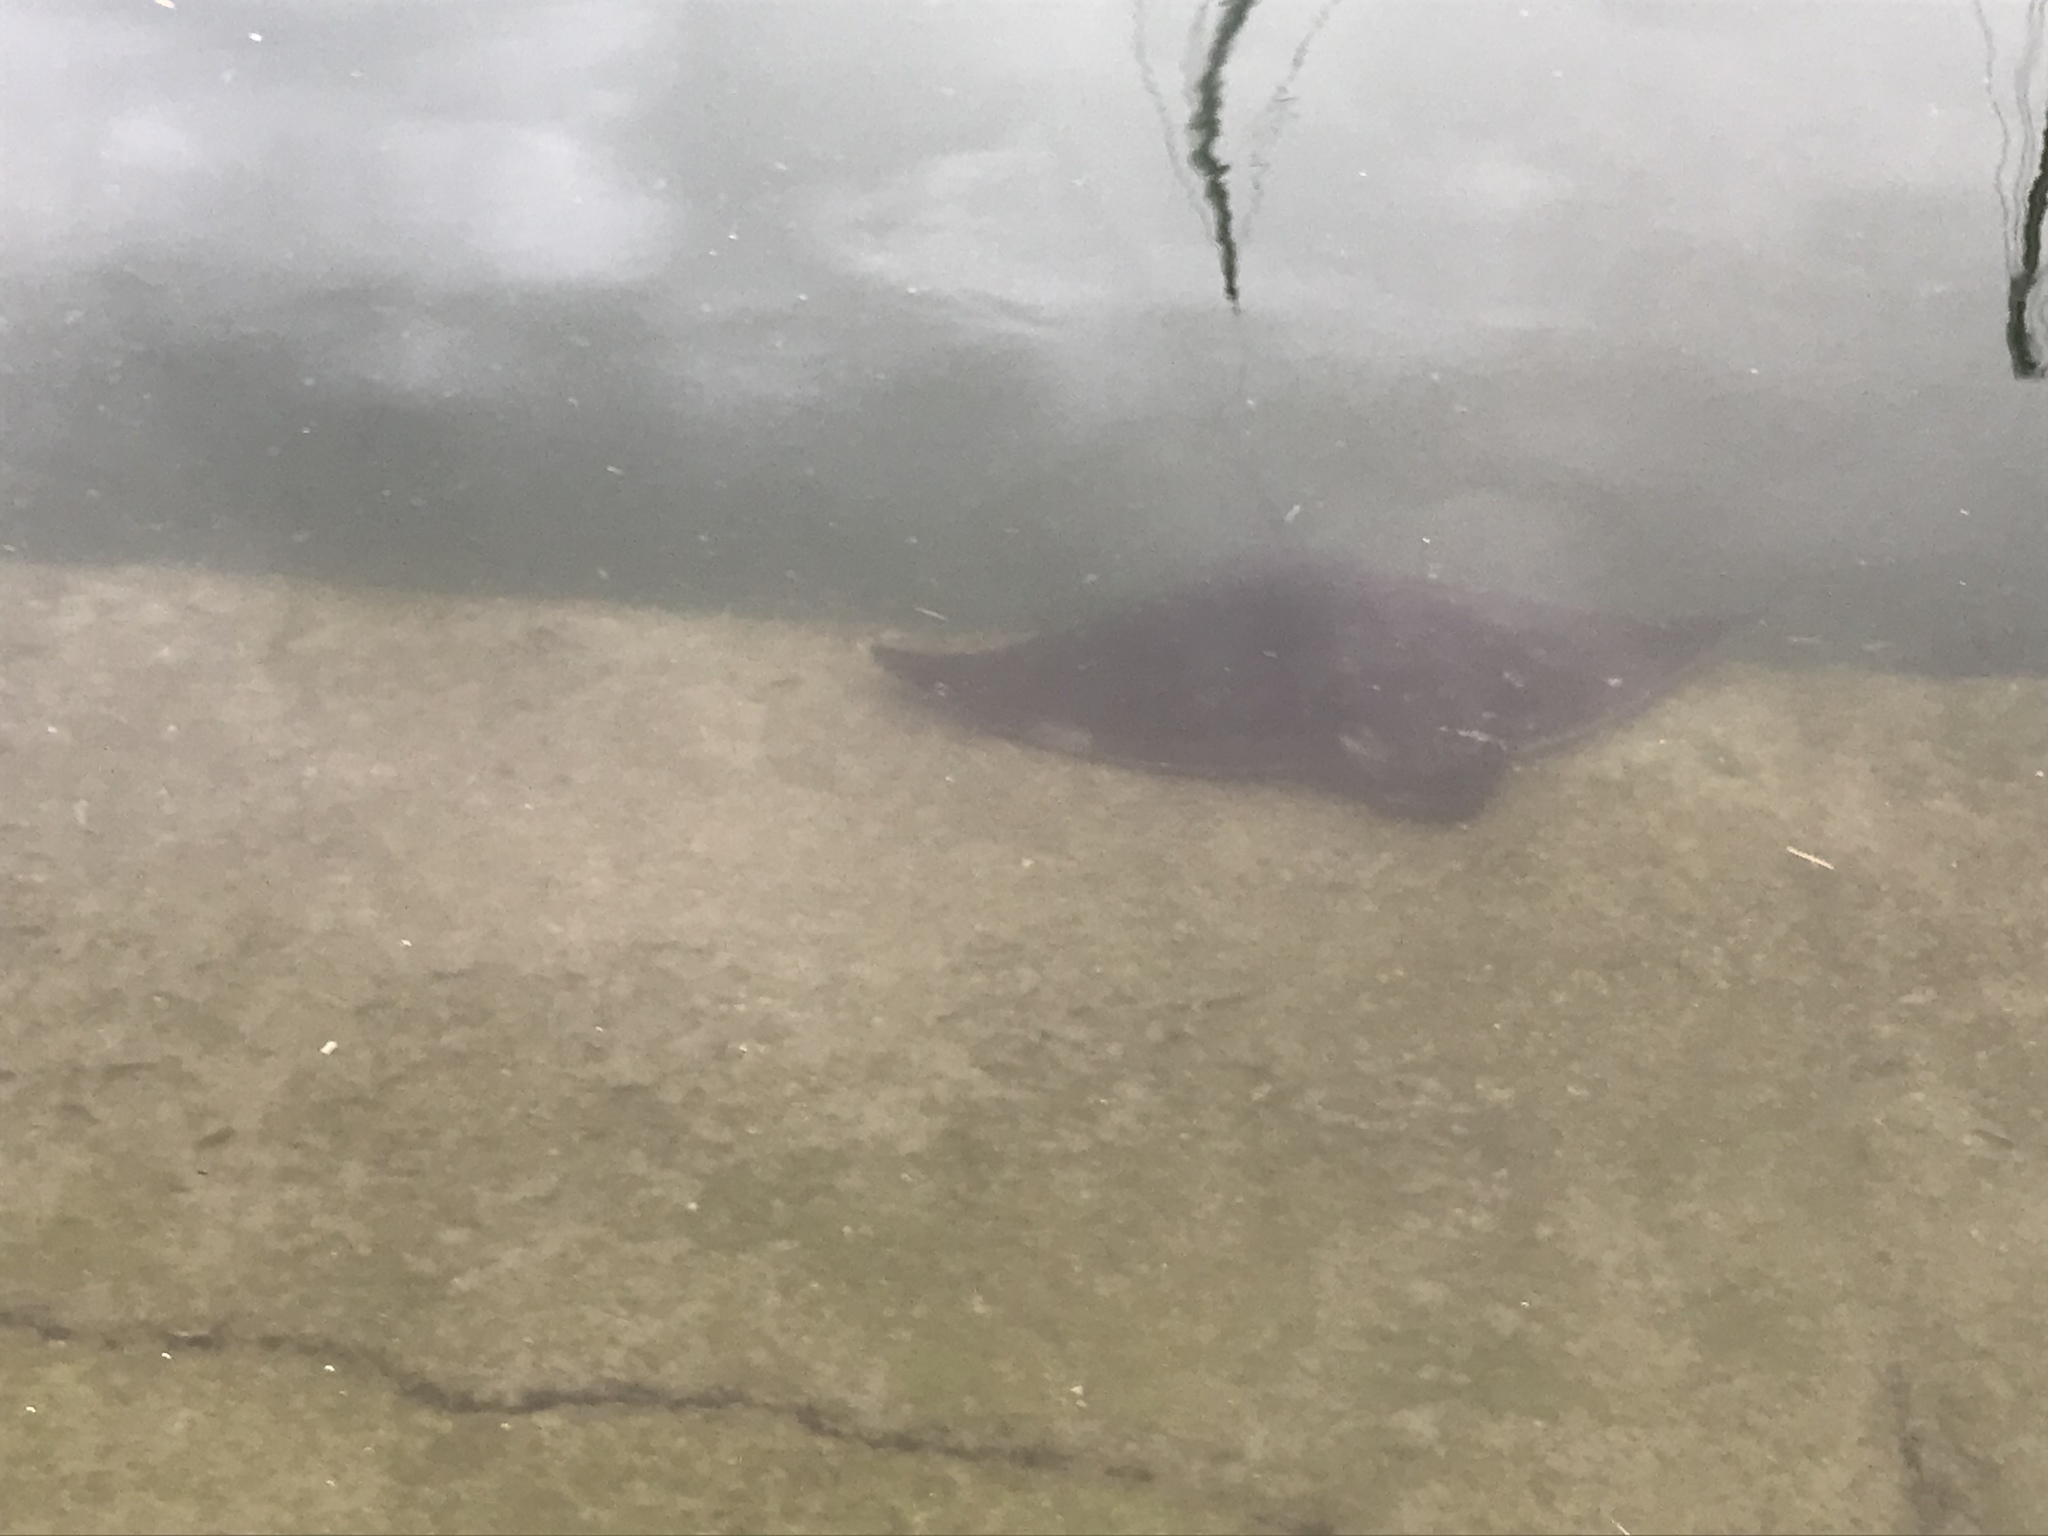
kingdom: Animalia
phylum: Chordata
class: Elasmobranchii
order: Myliobatiformes
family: Myliobatidae
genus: Myliobatis
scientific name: Myliobatis tenuicaudatus
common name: Eagle ray
